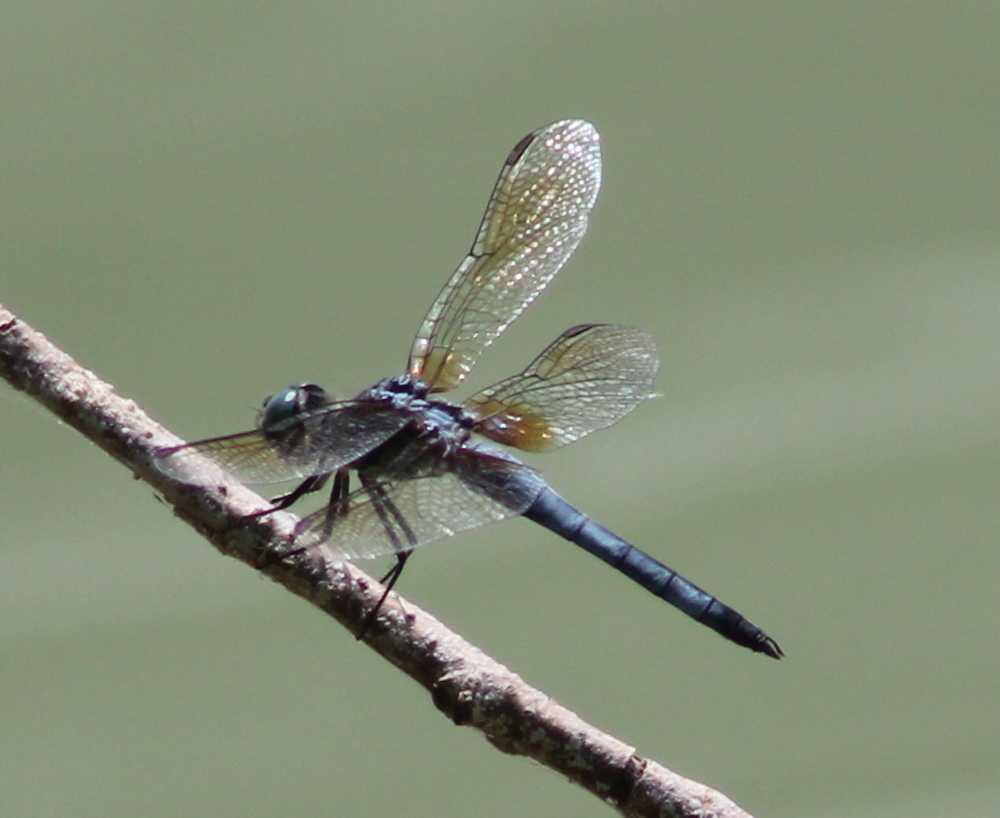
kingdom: Animalia
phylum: Arthropoda
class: Insecta
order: Odonata
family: Libellulidae
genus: Pachydiplax
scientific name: Pachydiplax longipennis
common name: Blue dasher
